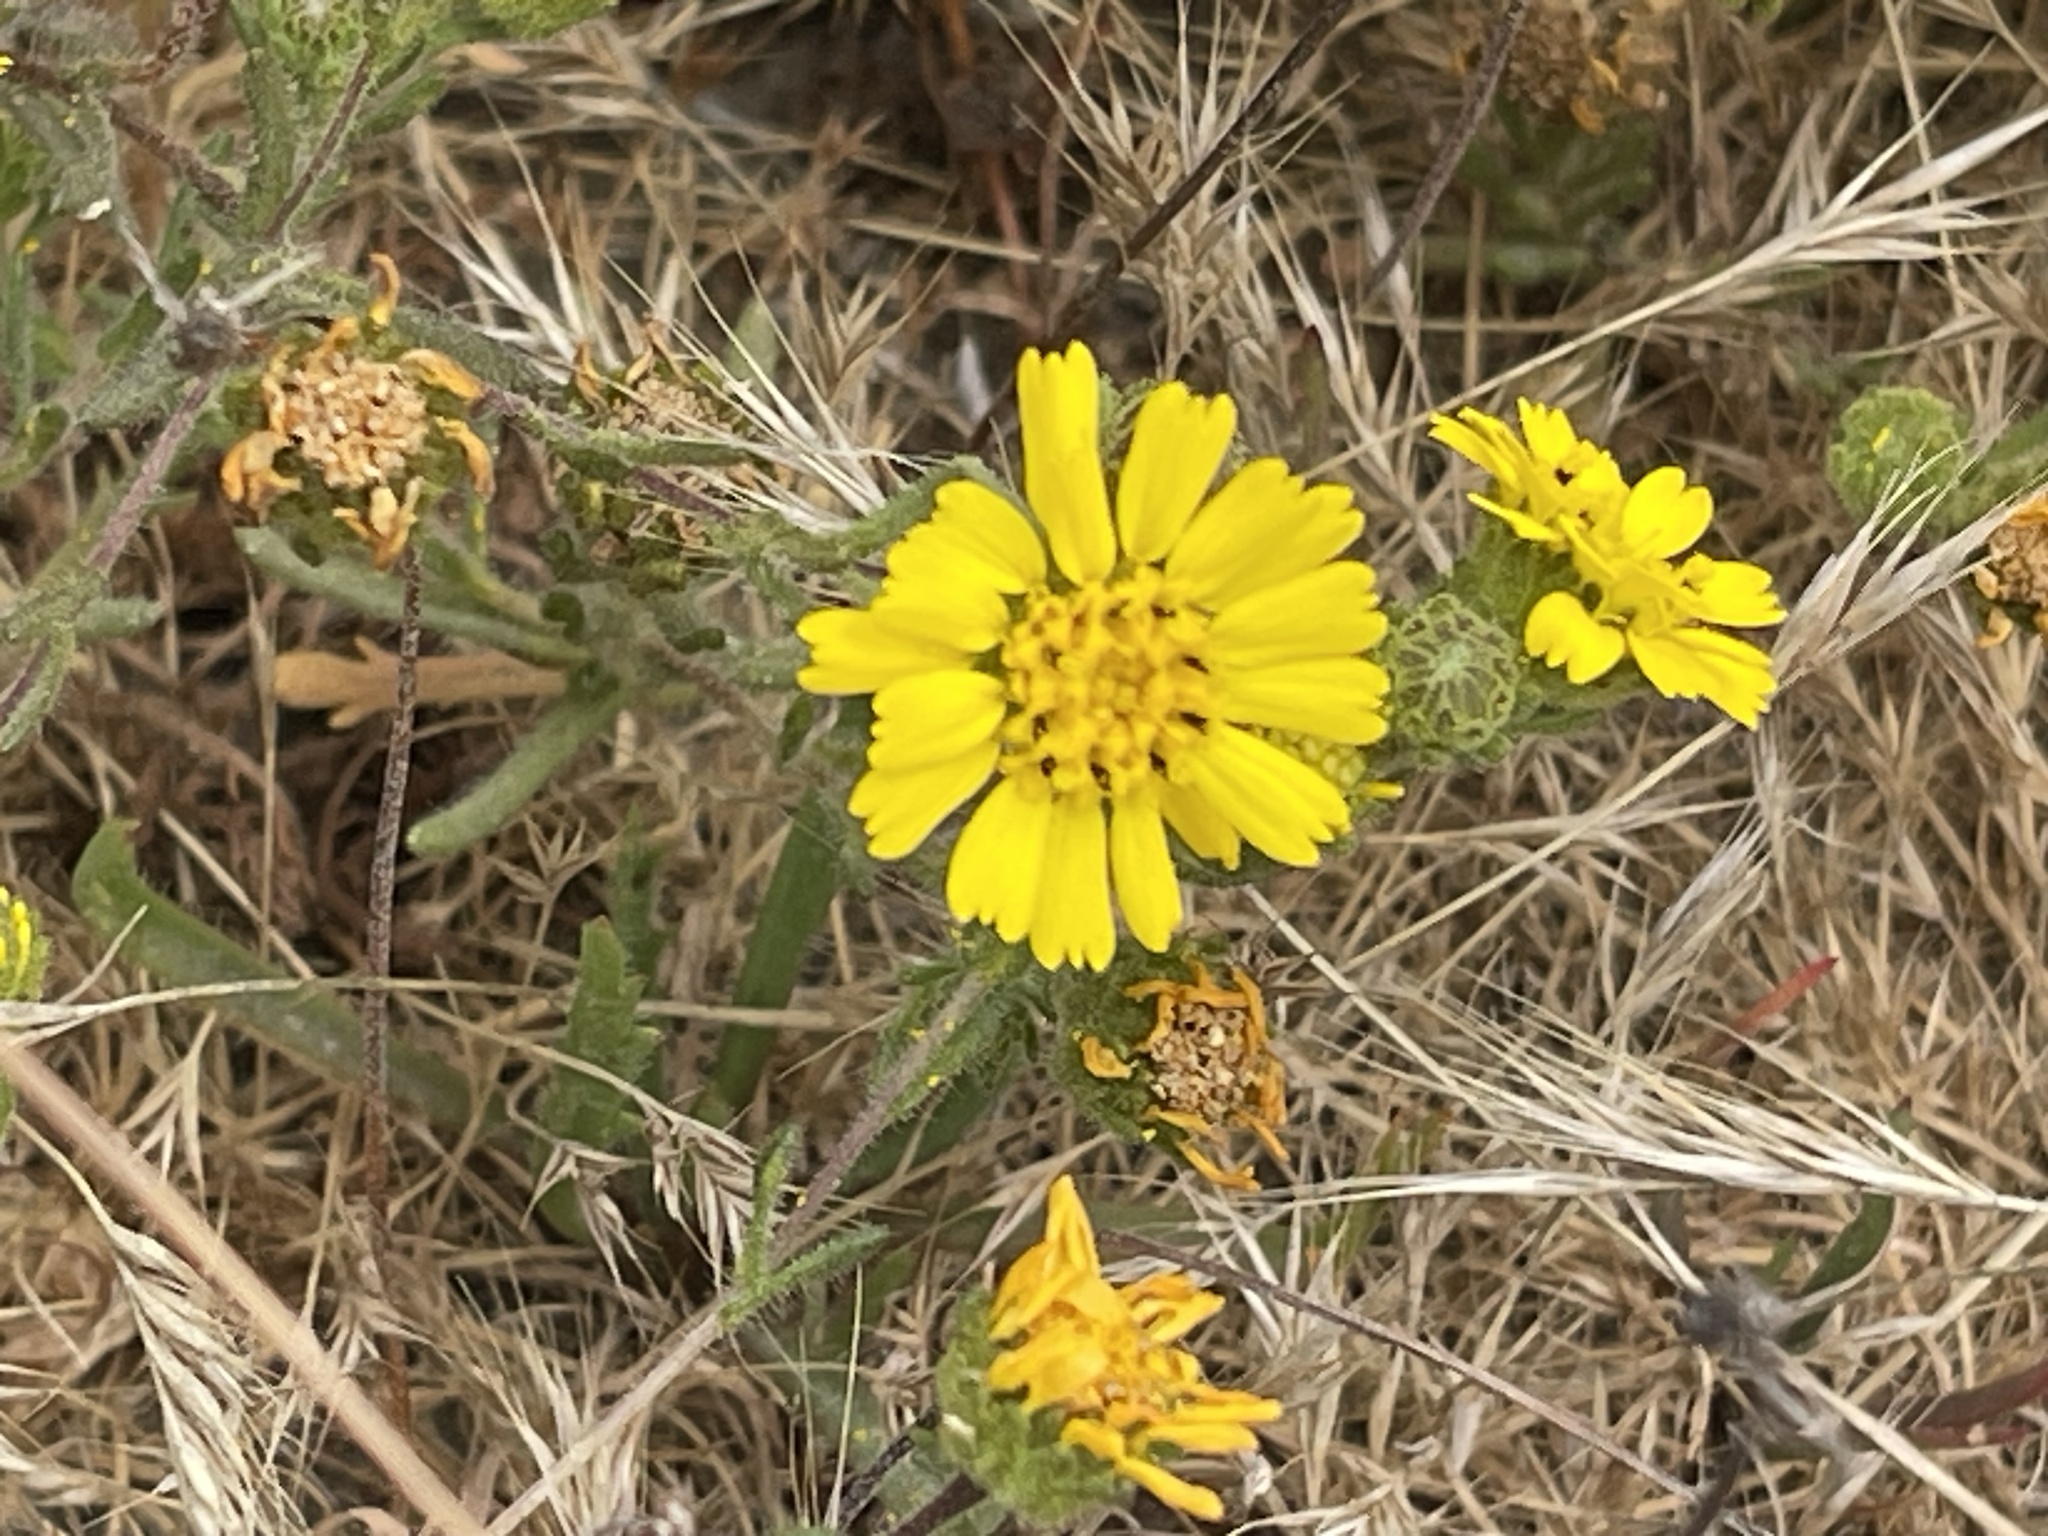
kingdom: Plantae
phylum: Tracheophyta
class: Magnoliopsida
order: Asterales
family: Asteraceae
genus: Deinandra
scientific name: Deinandra corymbosa
